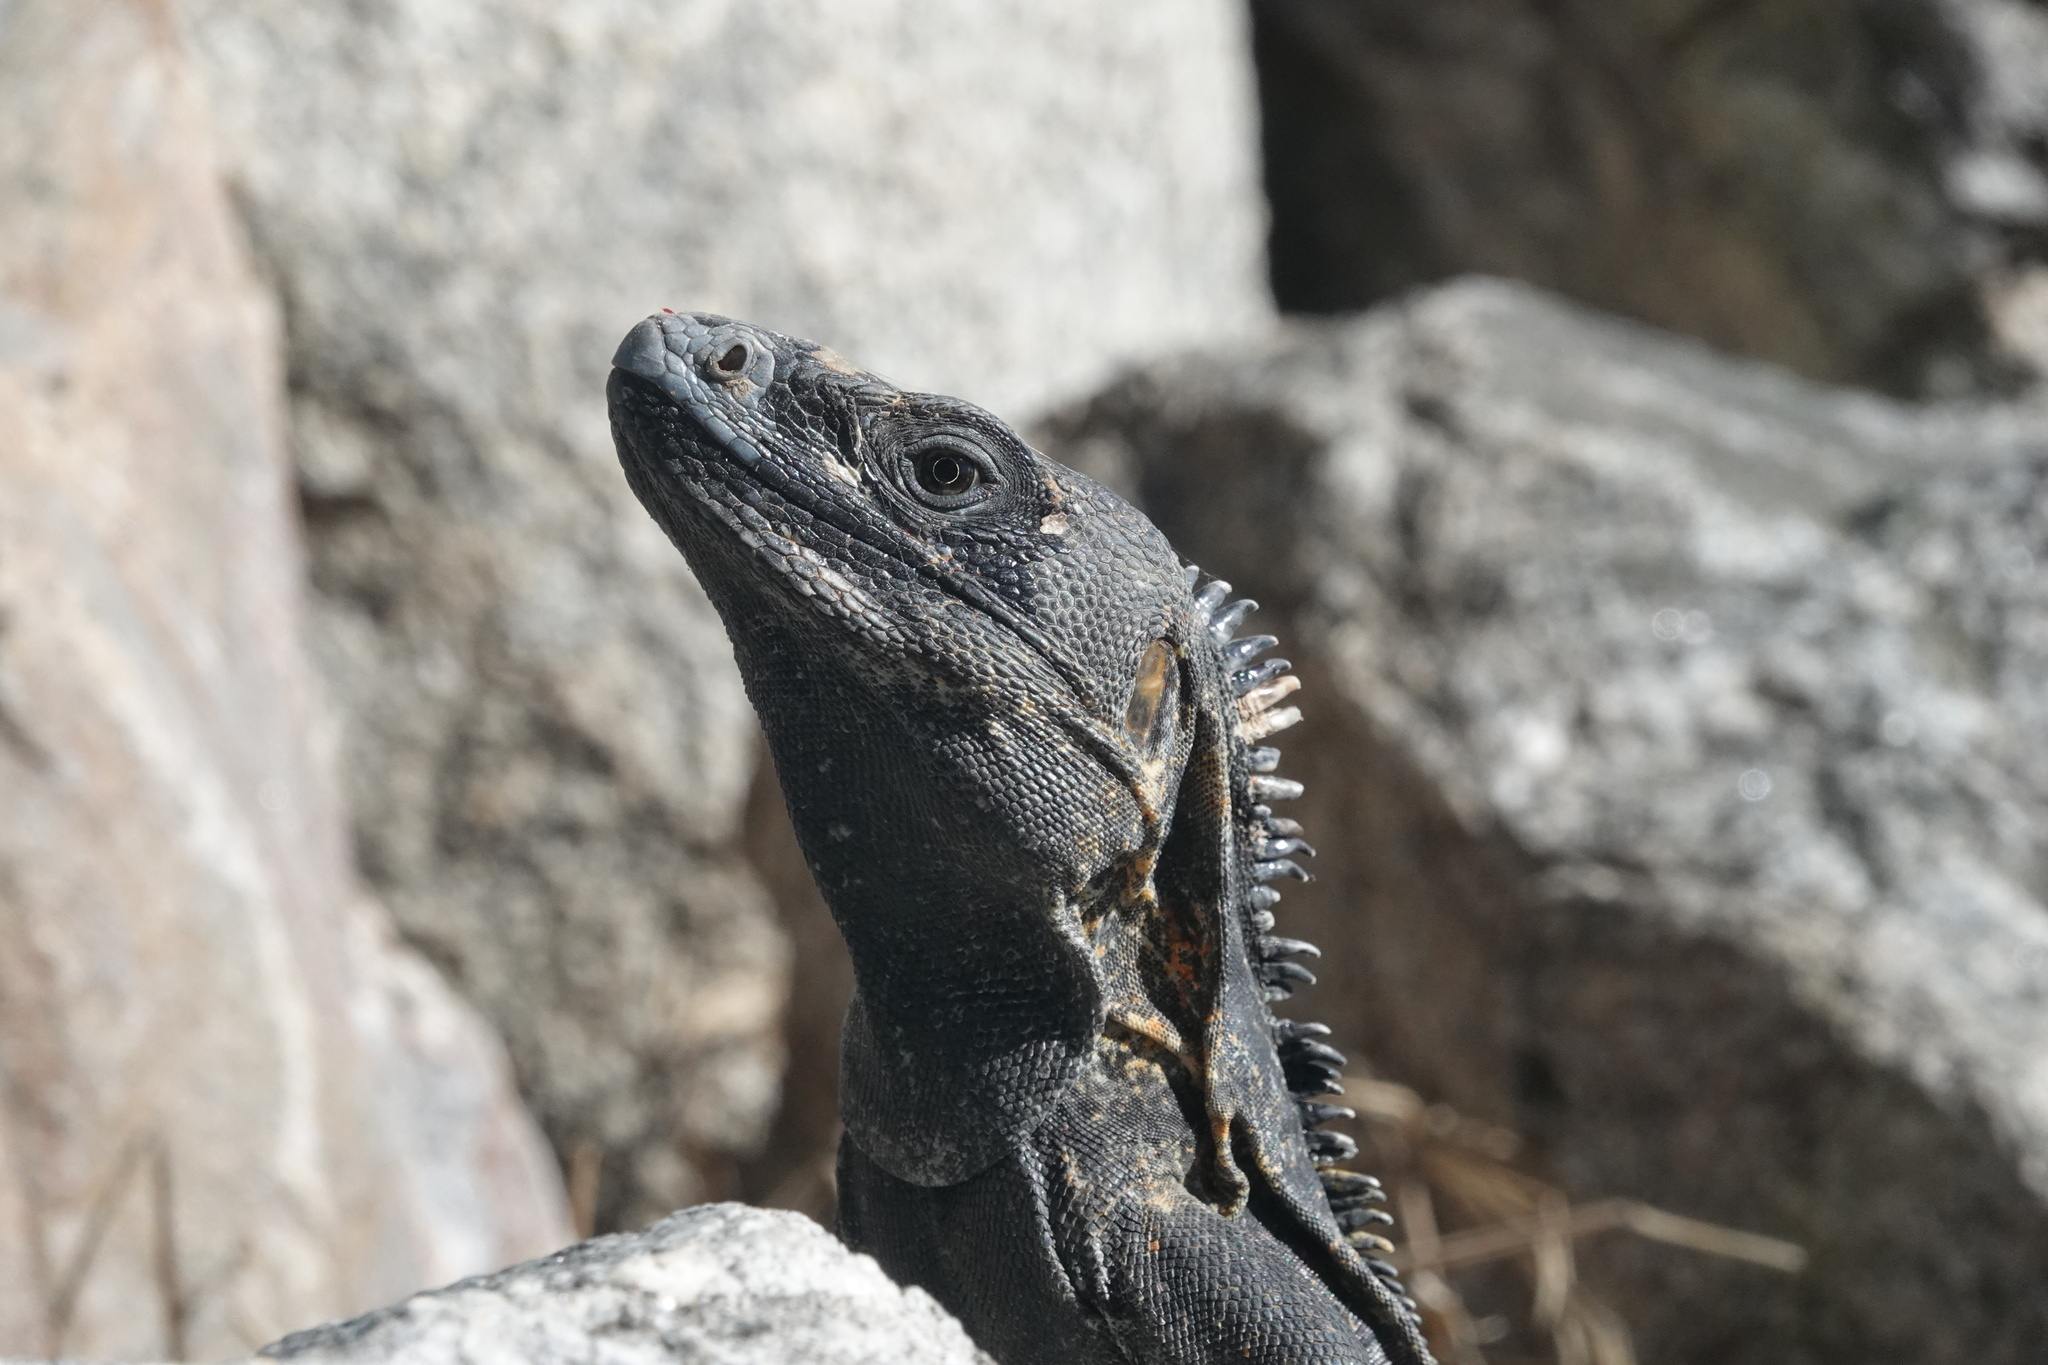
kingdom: Animalia
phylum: Chordata
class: Squamata
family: Iguanidae
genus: Ctenosaura
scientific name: Ctenosaura pectinata
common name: Guerreran spiny-tailed iguana
